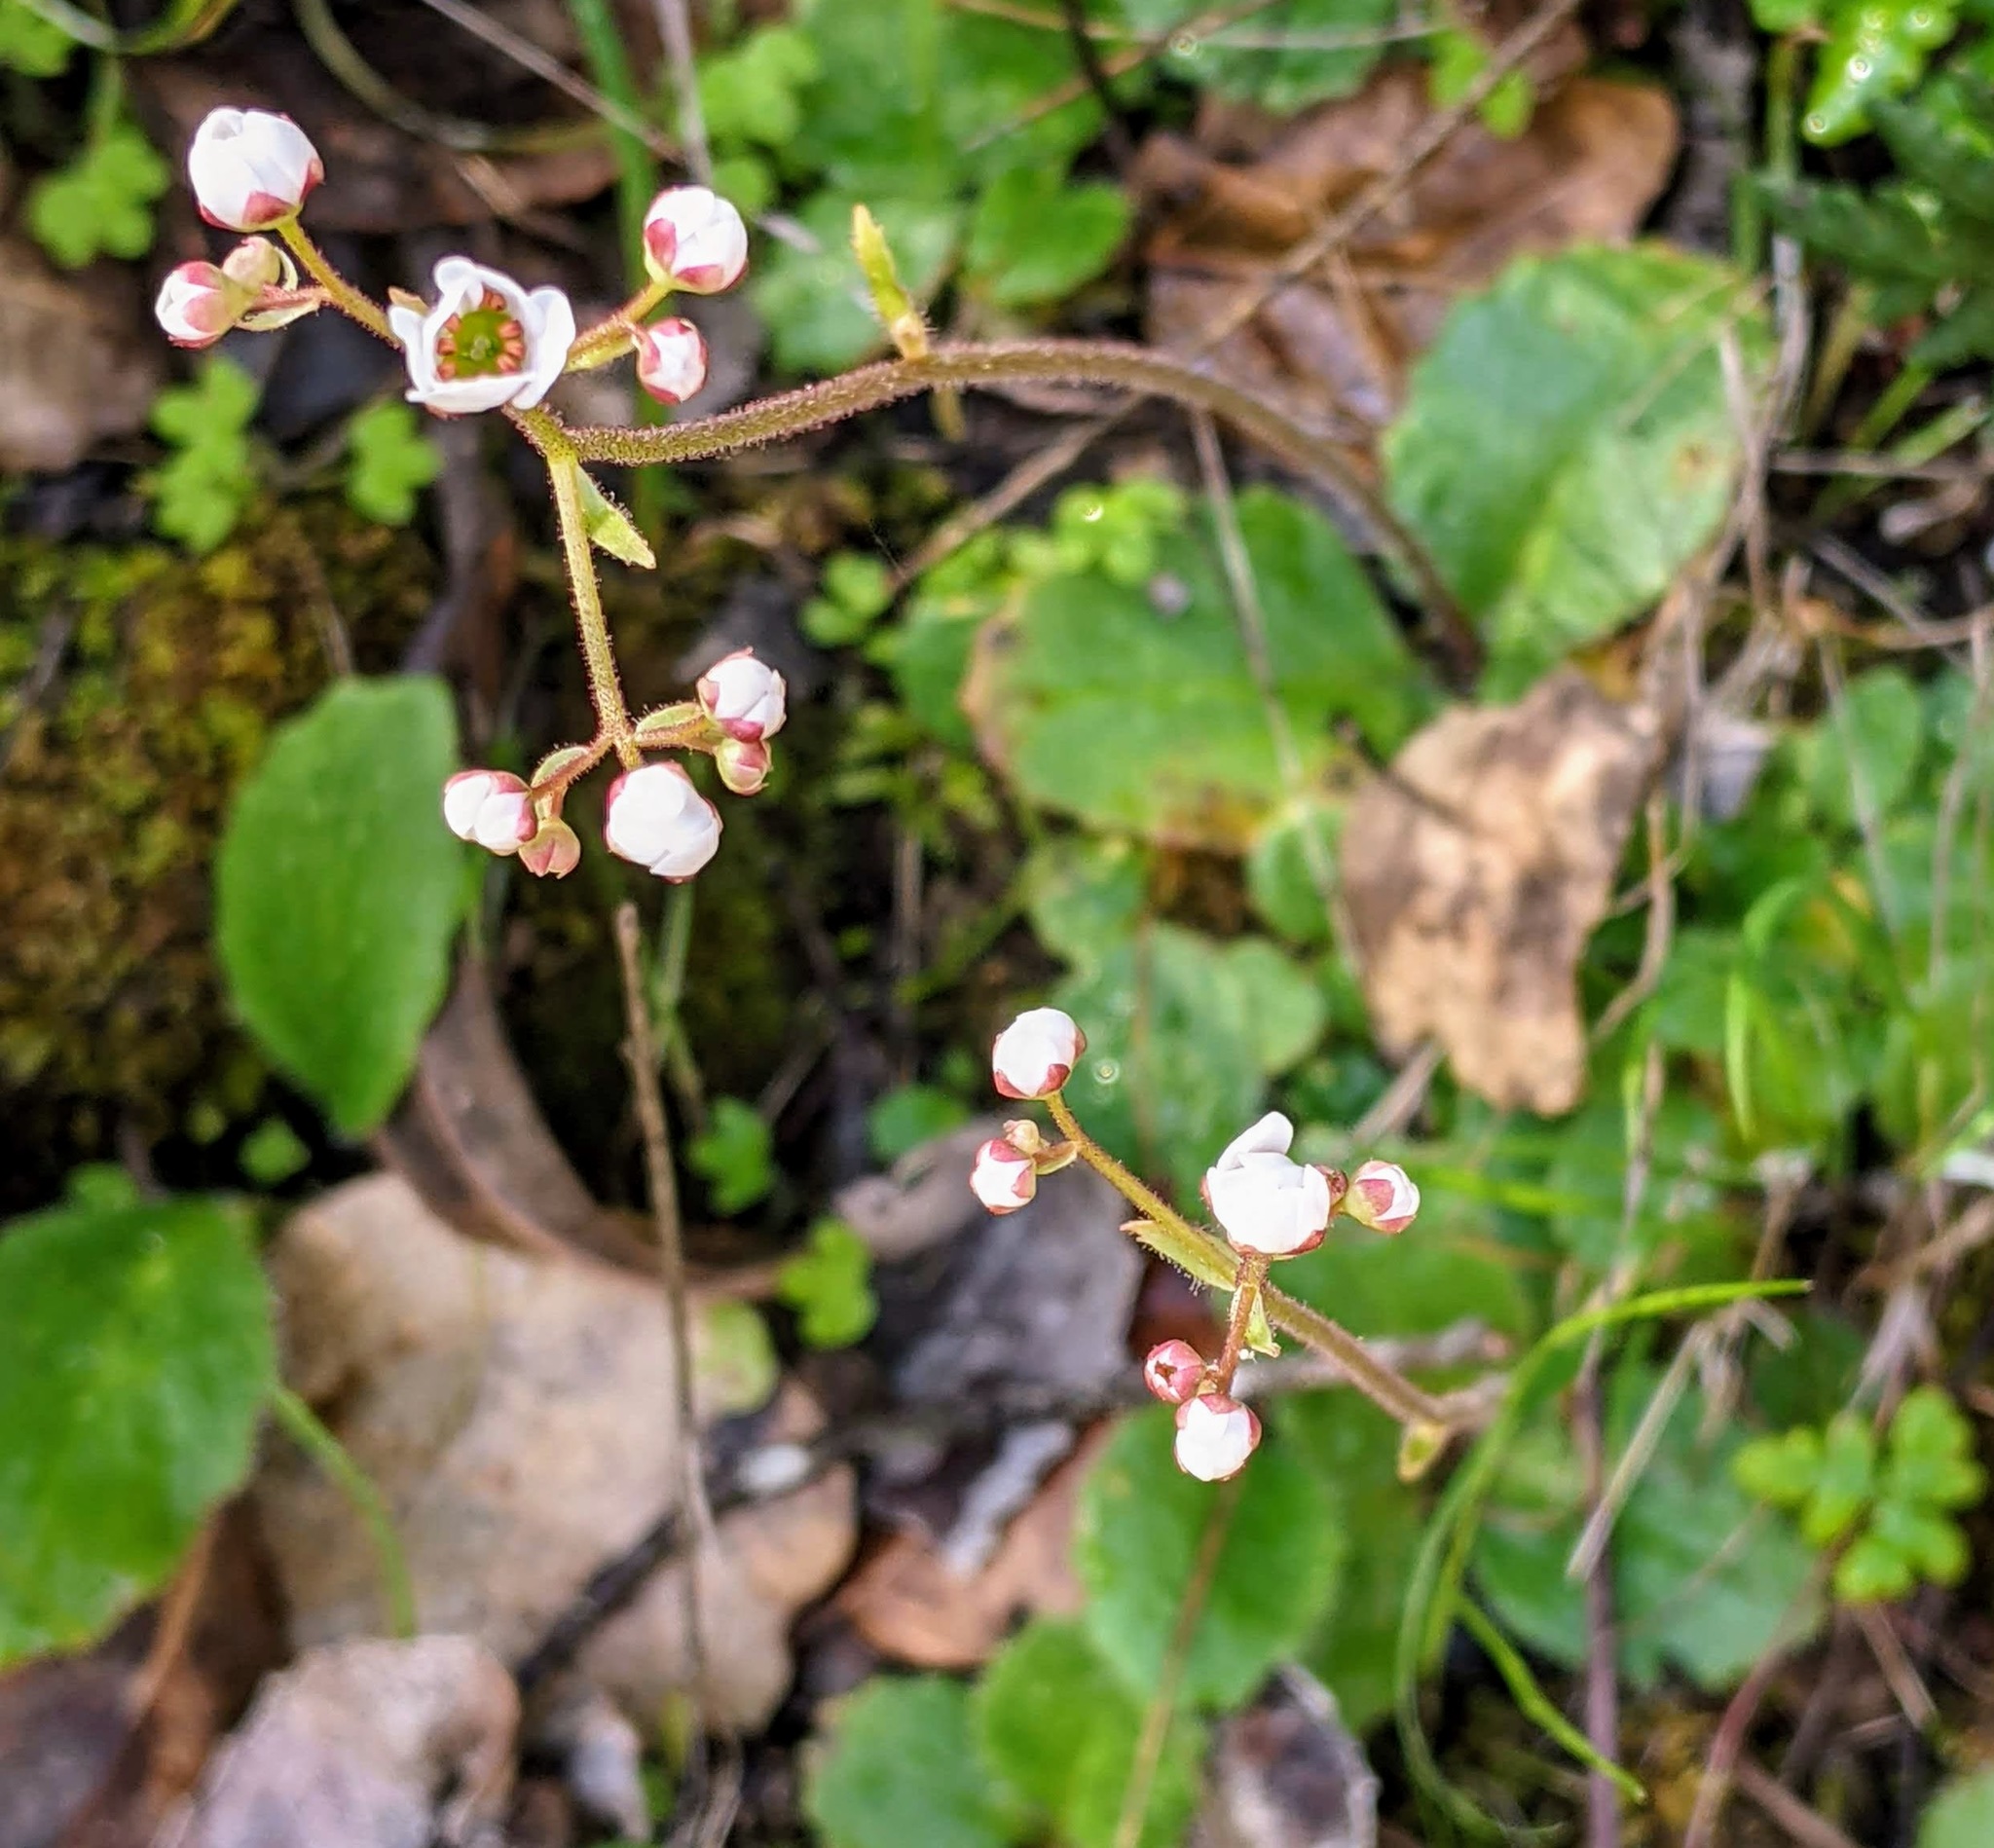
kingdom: Plantae
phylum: Tracheophyta
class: Magnoliopsida
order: Saxifragales
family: Saxifragaceae
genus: Micranthes
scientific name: Micranthes californica
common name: California saxifrage
